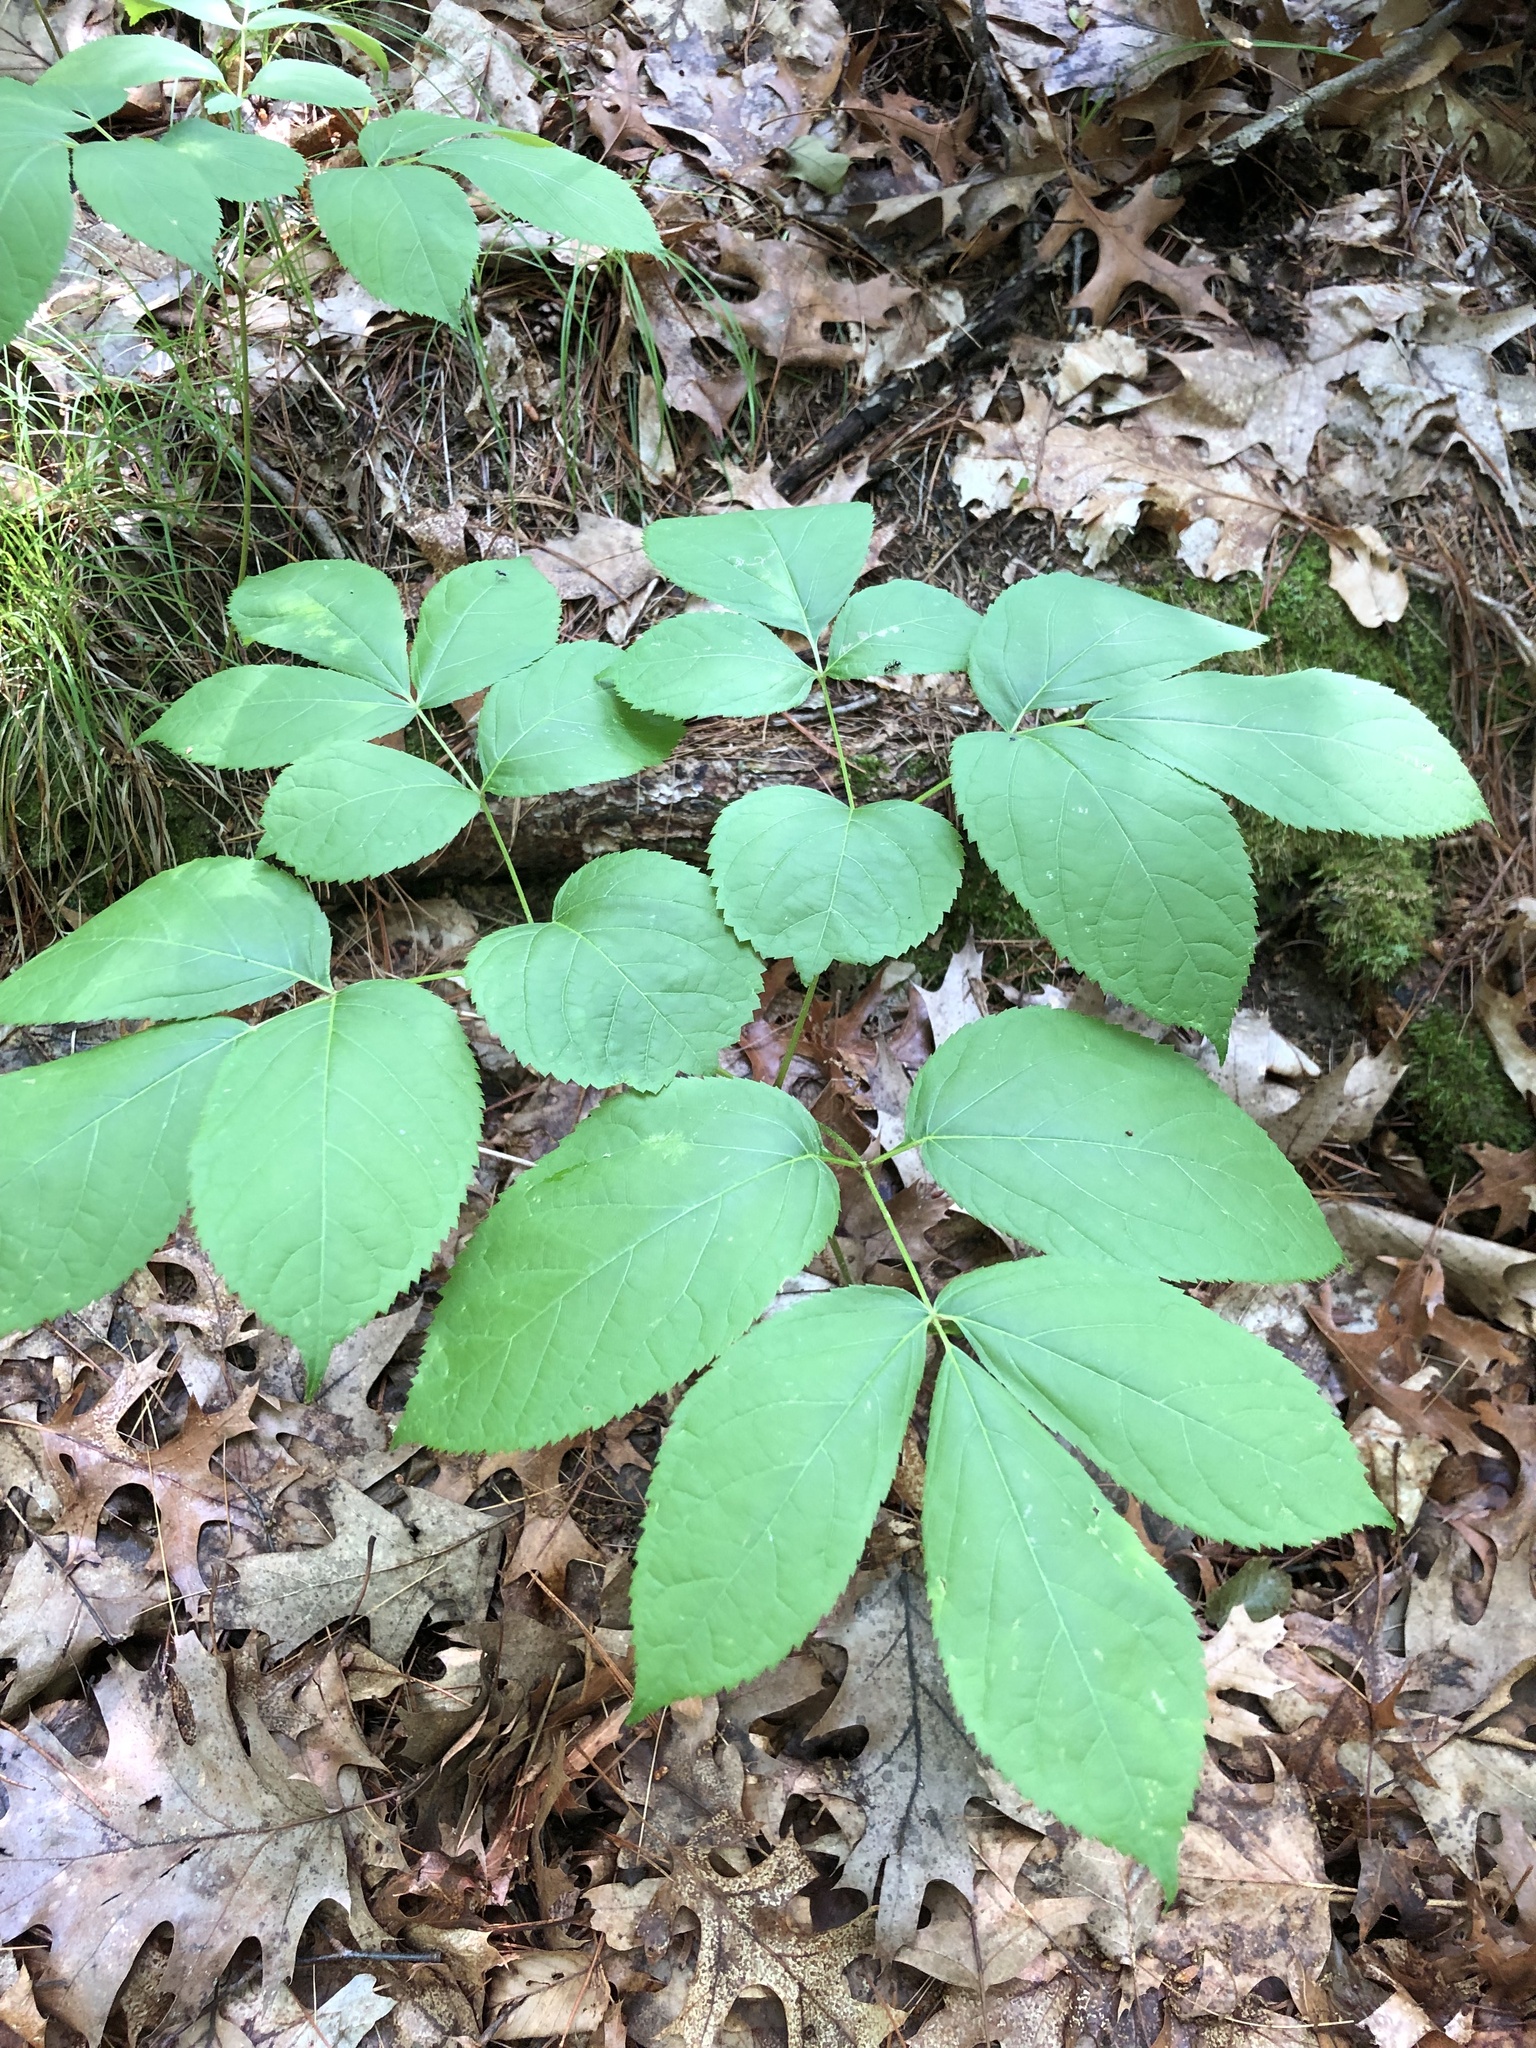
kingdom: Plantae
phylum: Tracheophyta
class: Magnoliopsida
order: Apiales
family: Araliaceae
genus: Aralia
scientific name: Aralia nudicaulis
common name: Wild sarsaparilla
